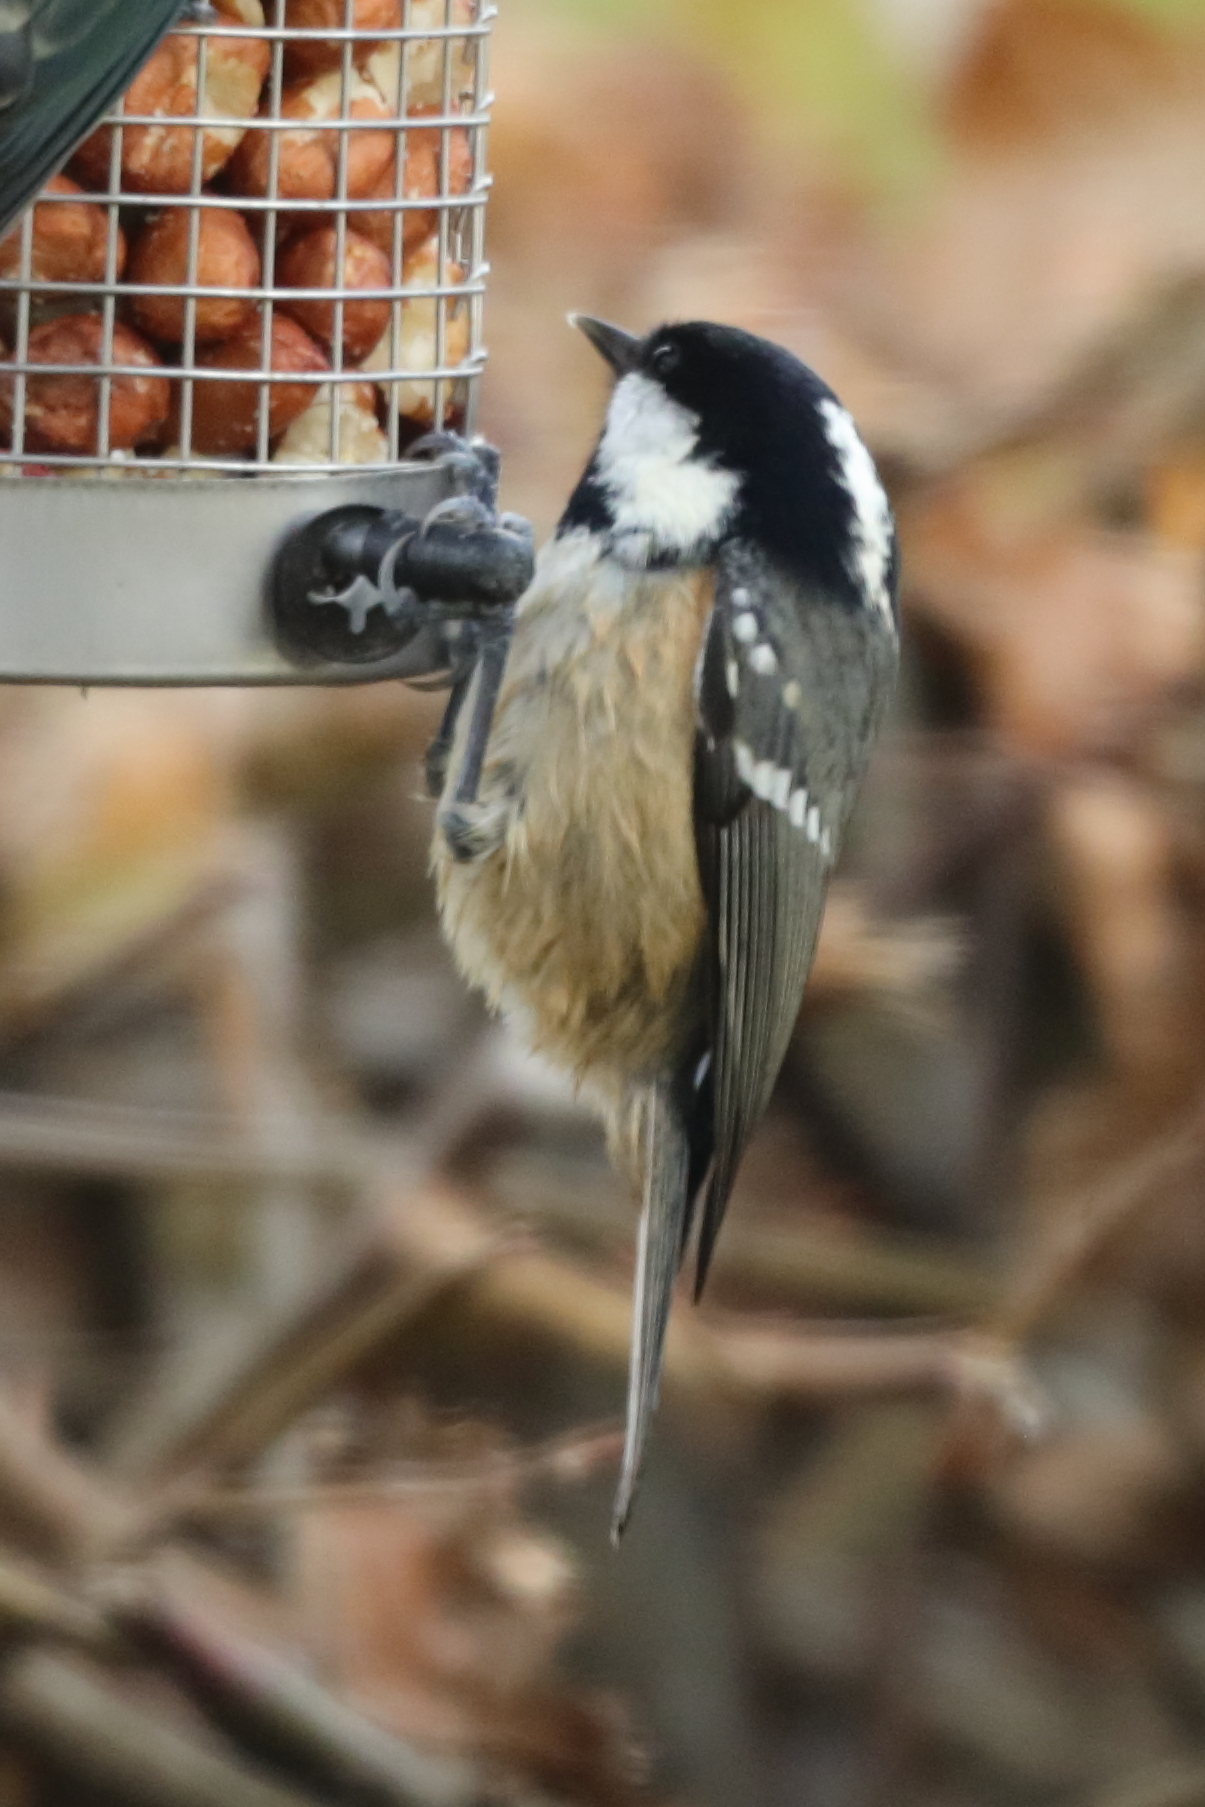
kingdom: Animalia
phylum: Chordata
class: Aves
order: Passeriformes
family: Paridae
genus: Periparus
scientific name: Periparus ater
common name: Coal tit
